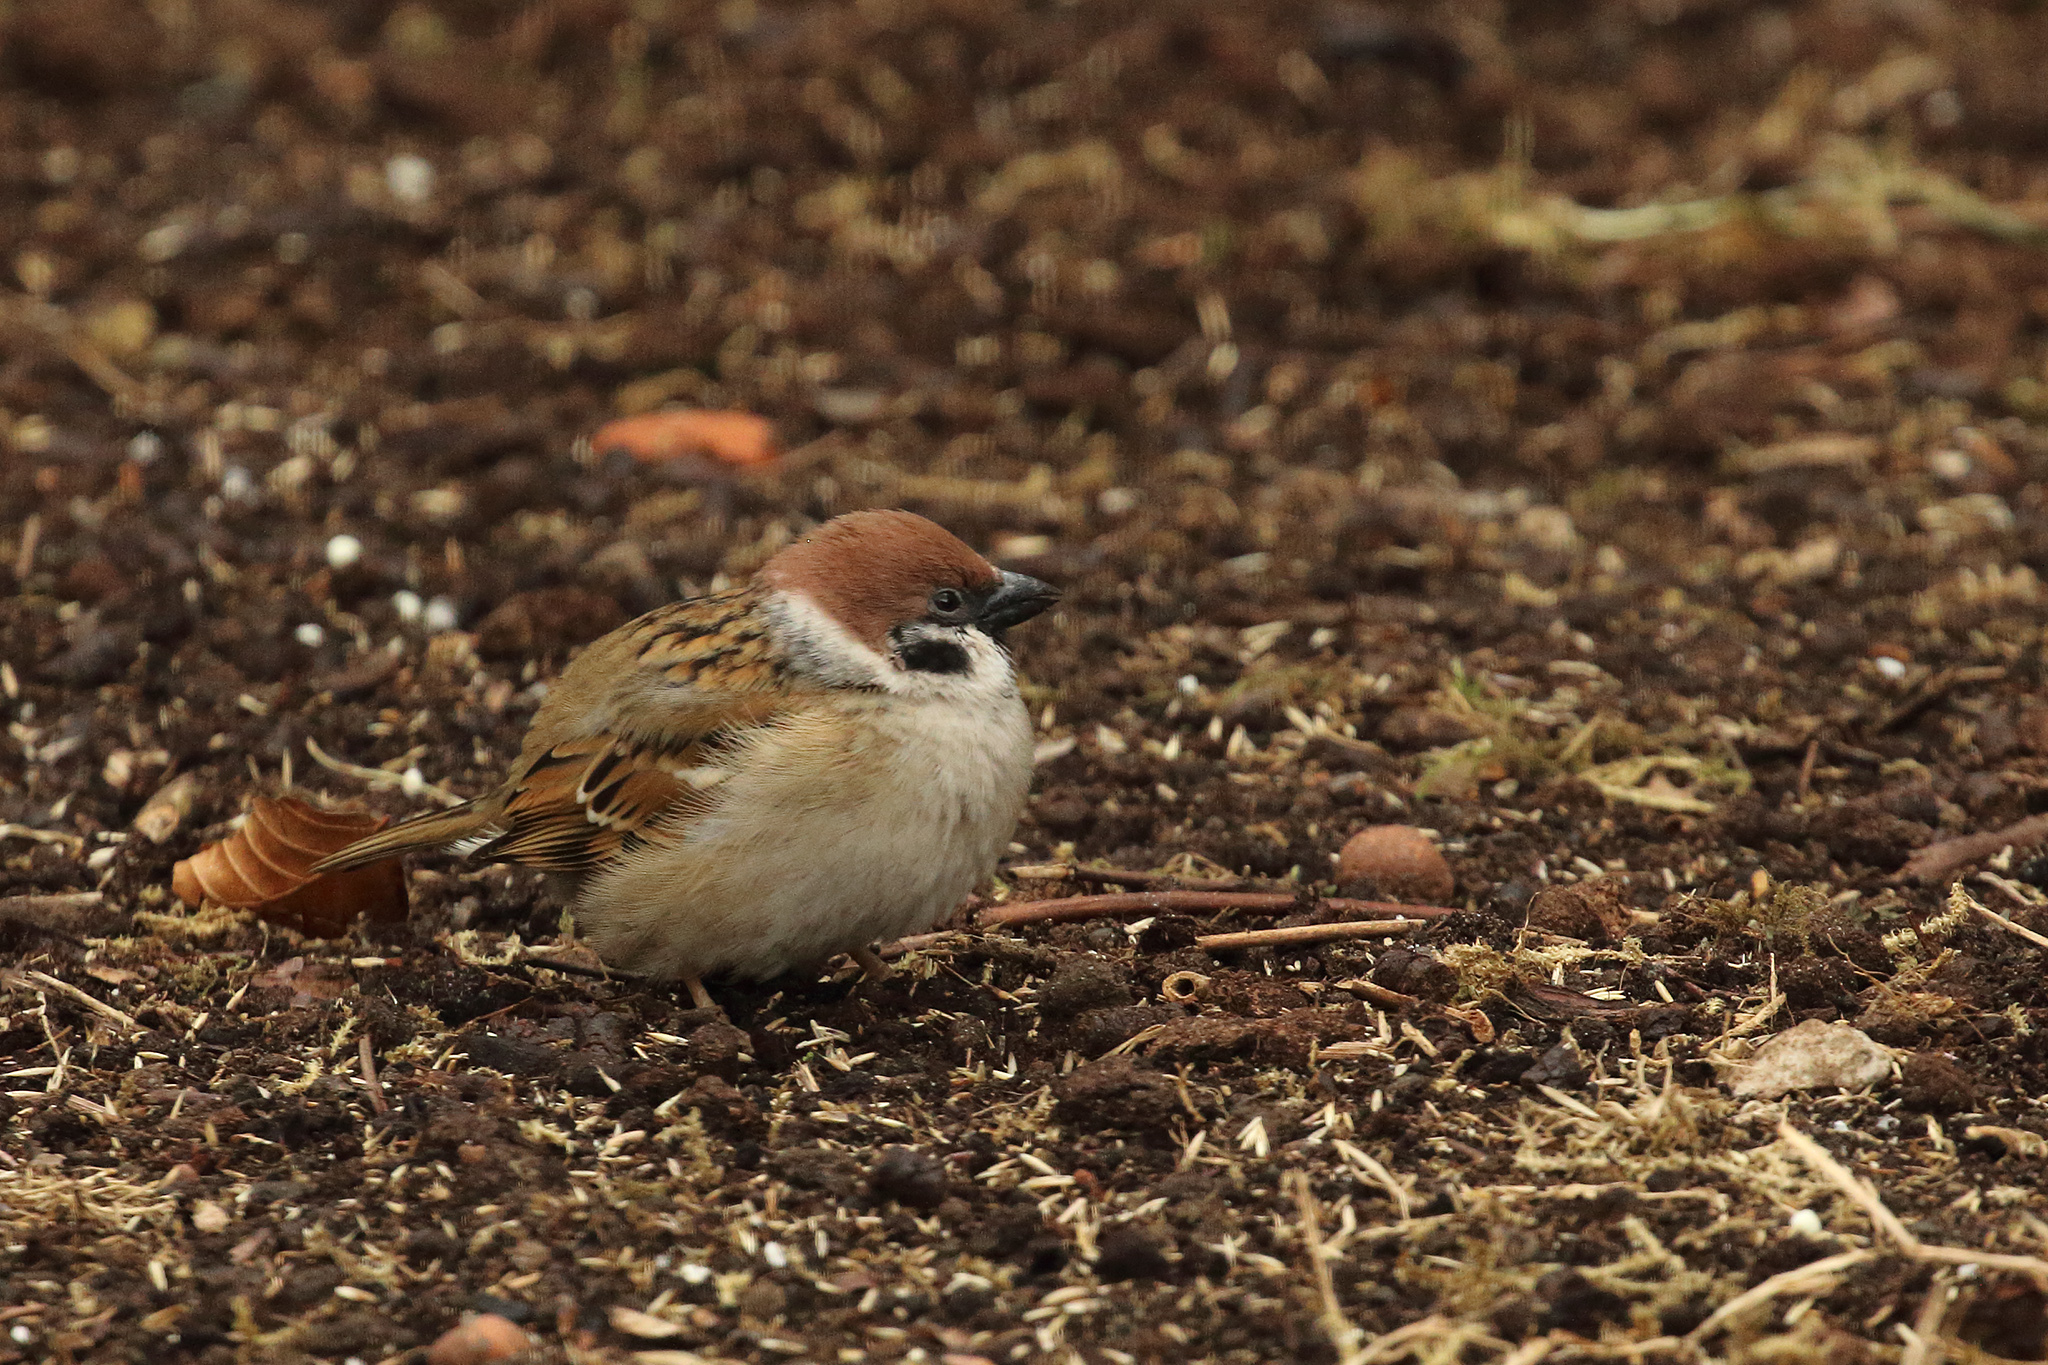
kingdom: Animalia
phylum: Chordata
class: Aves
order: Passeriformes
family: Passeridae
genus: Passer
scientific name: Passer montanus
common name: Eurasian tree sparrow
